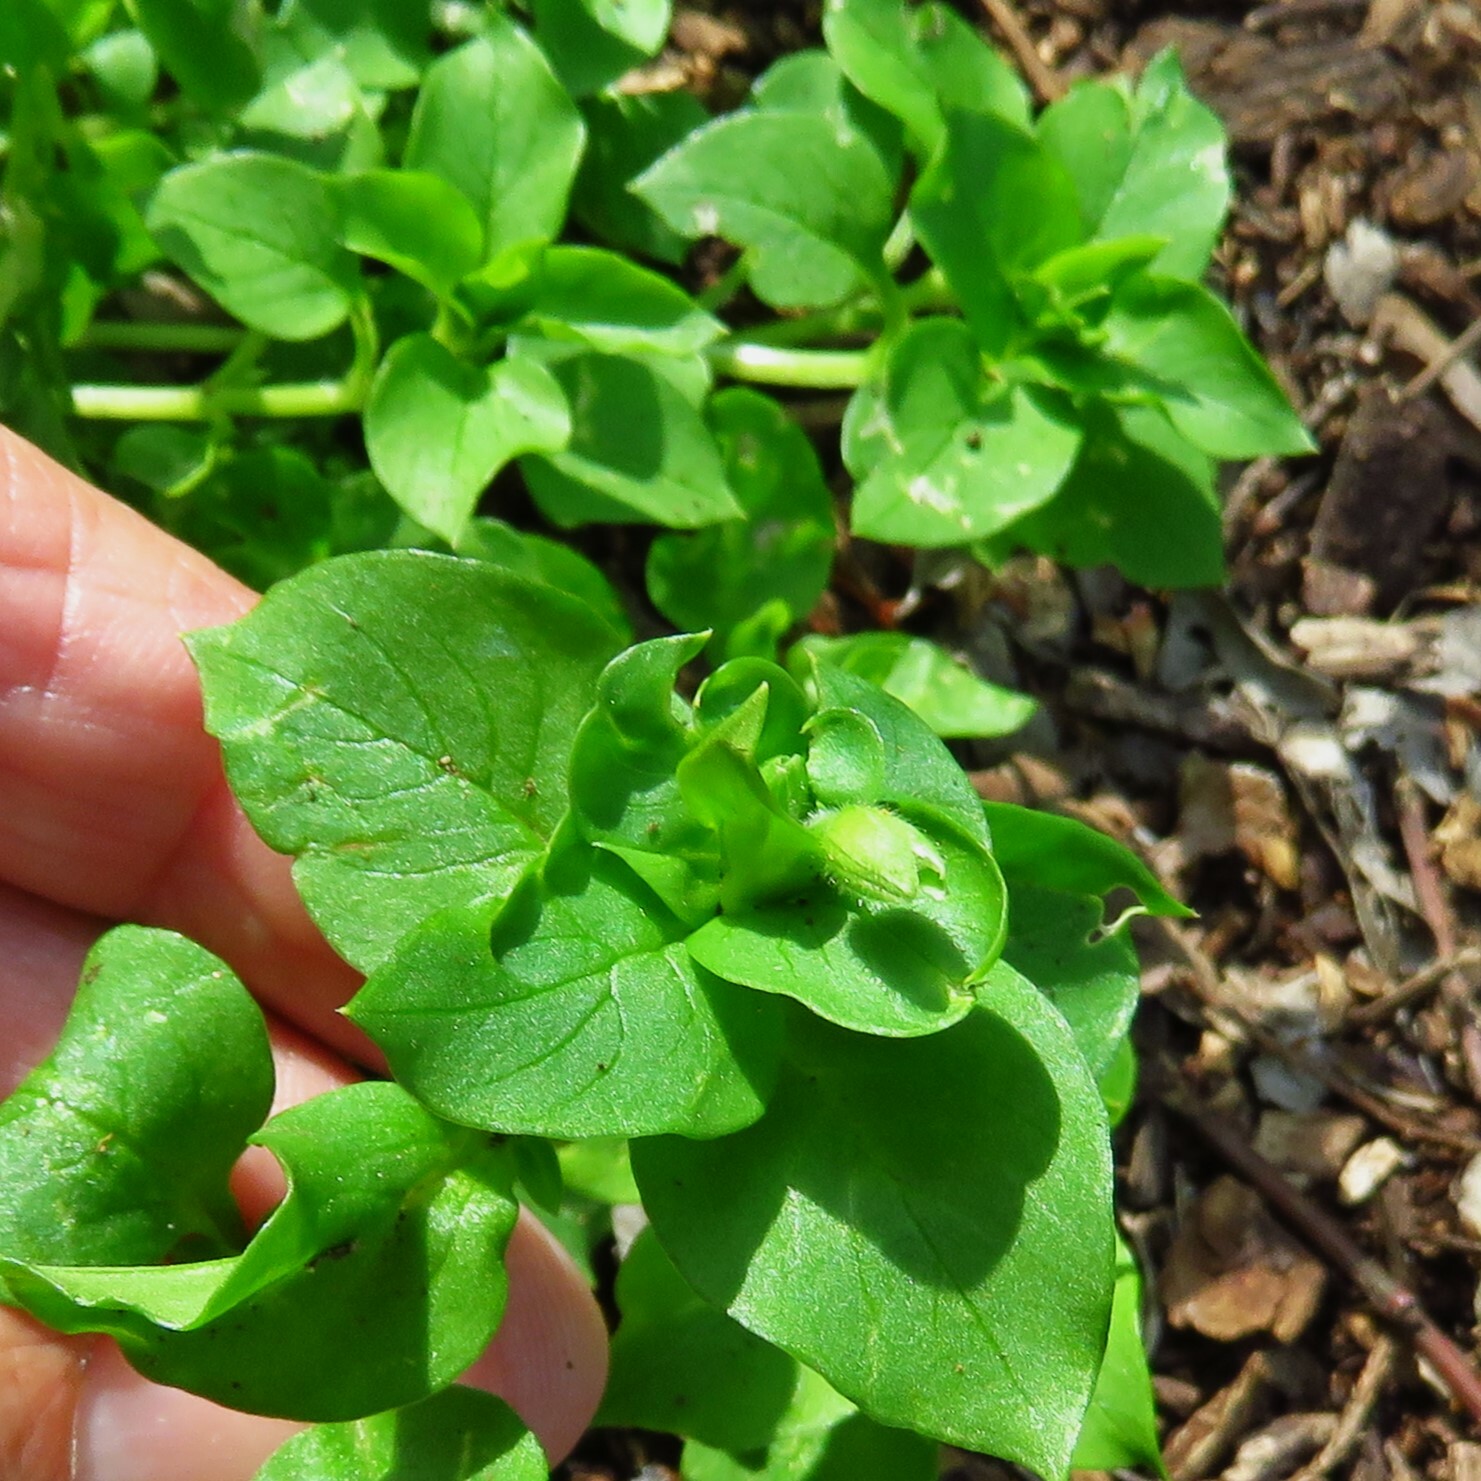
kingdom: Plantae
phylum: Tracheophyta
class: Magnoliopsida
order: Caryophyllales
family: Caryophyllaceae
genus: Stellaria
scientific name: Stellaria media
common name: Common chickweed
